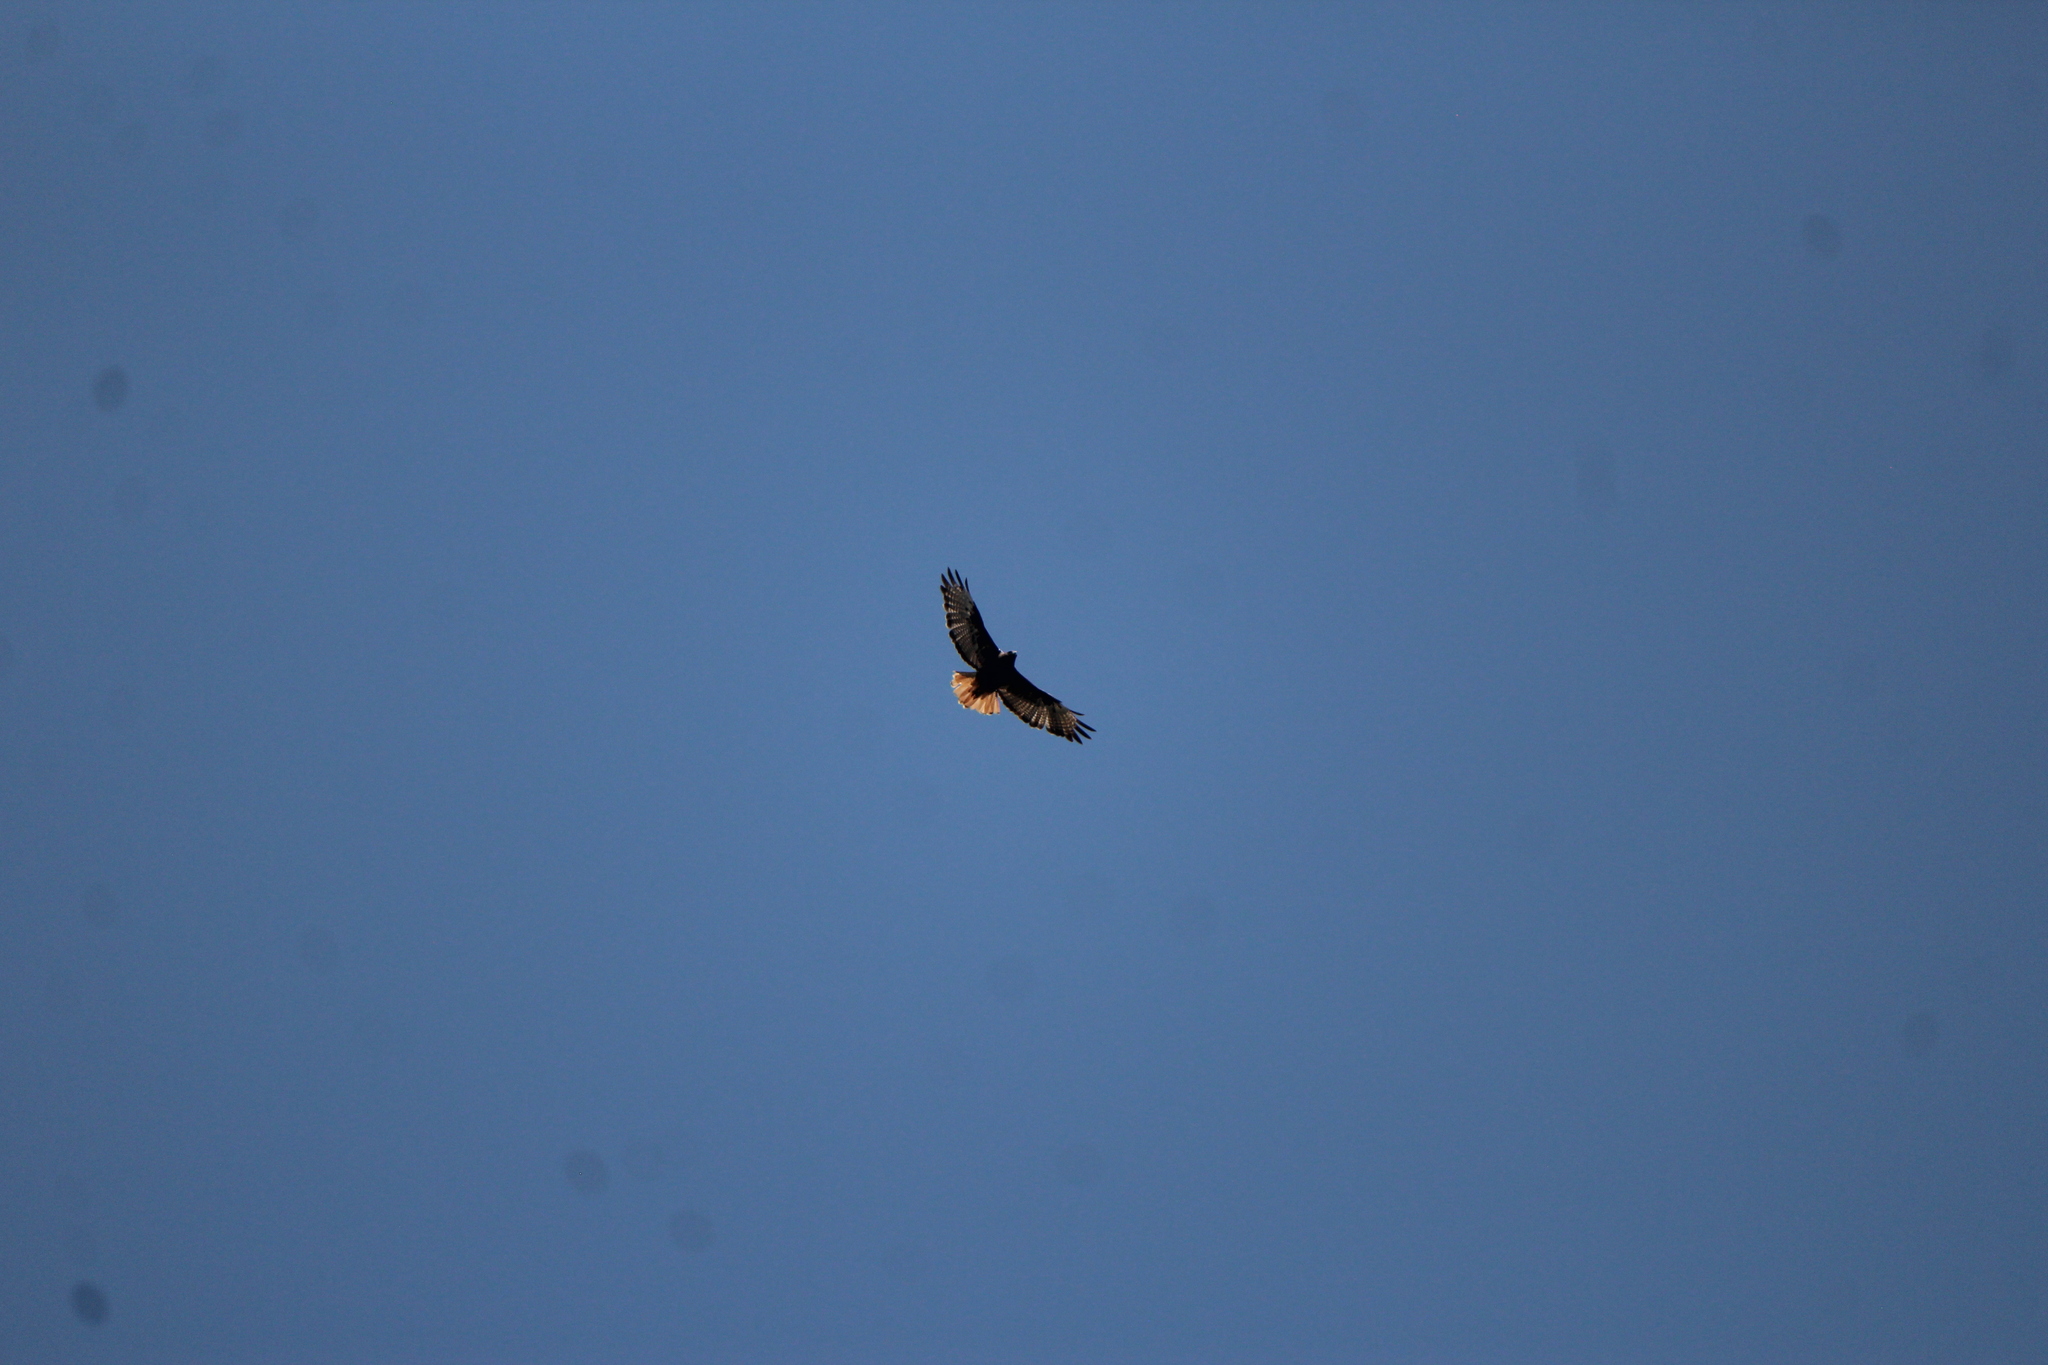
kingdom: Animalia
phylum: Chordata
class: Aves
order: Accipitriformes
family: Accipitridae
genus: Buteo
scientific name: Buteo jamaicensis
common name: Red-tailed hawk
